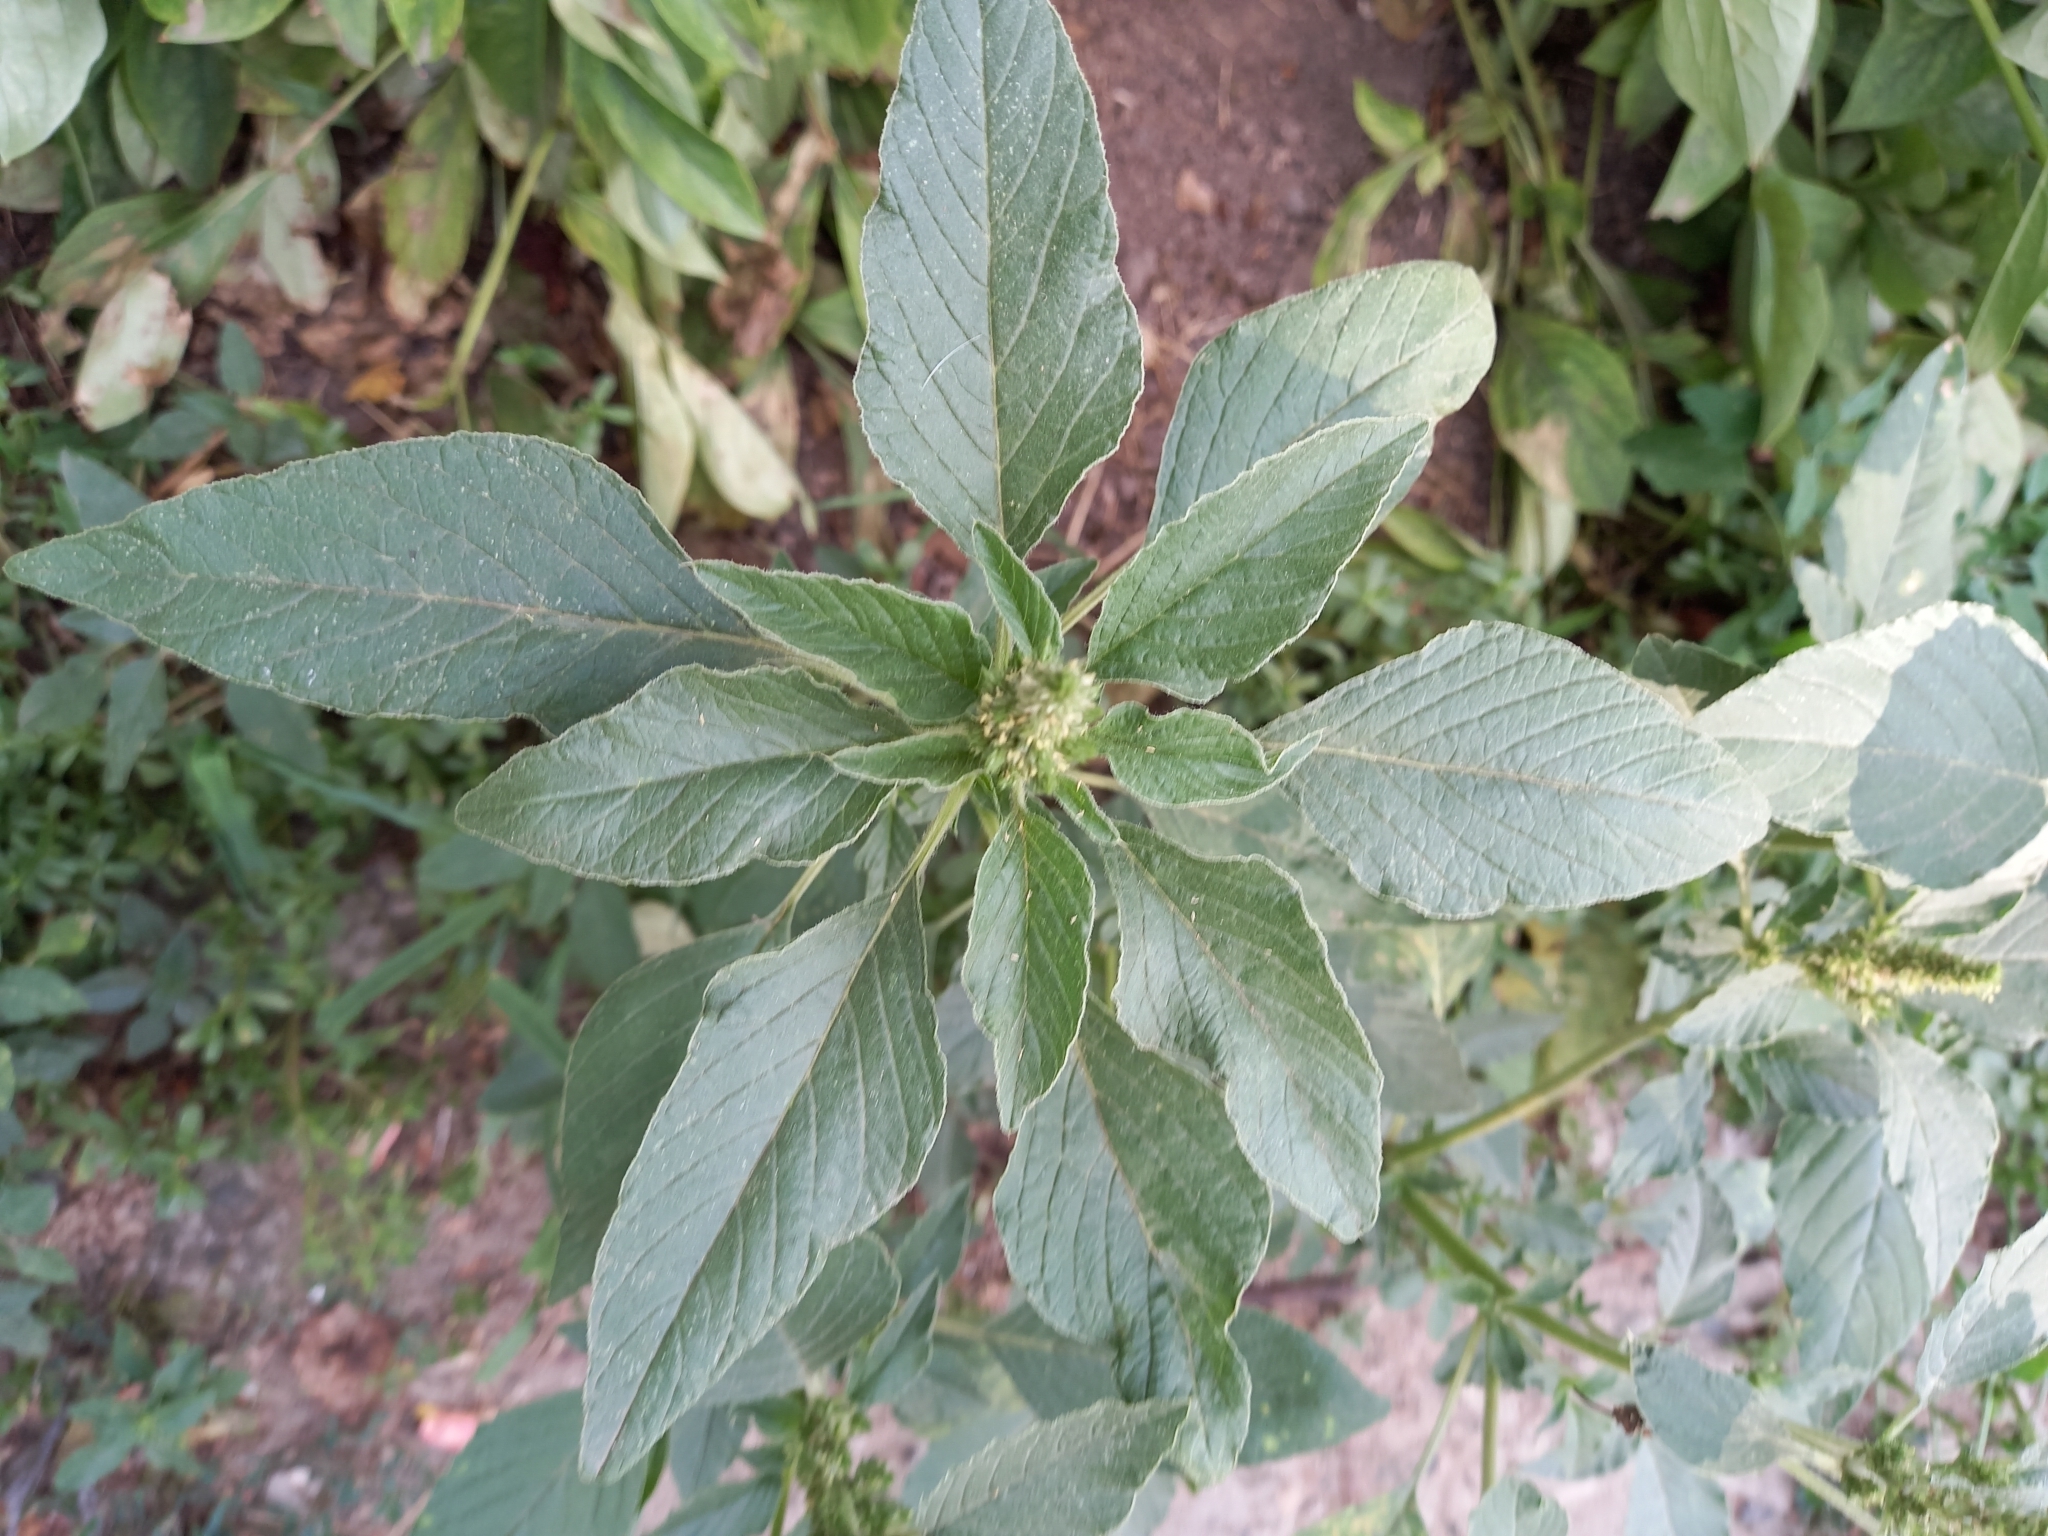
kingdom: Plantae
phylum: Tracheophyta
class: Magnoliopsida
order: Caryophyllales
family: Amaranthaceae
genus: Amaranthus
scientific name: Amaranthus retroflexus
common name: Redroot amaranth
